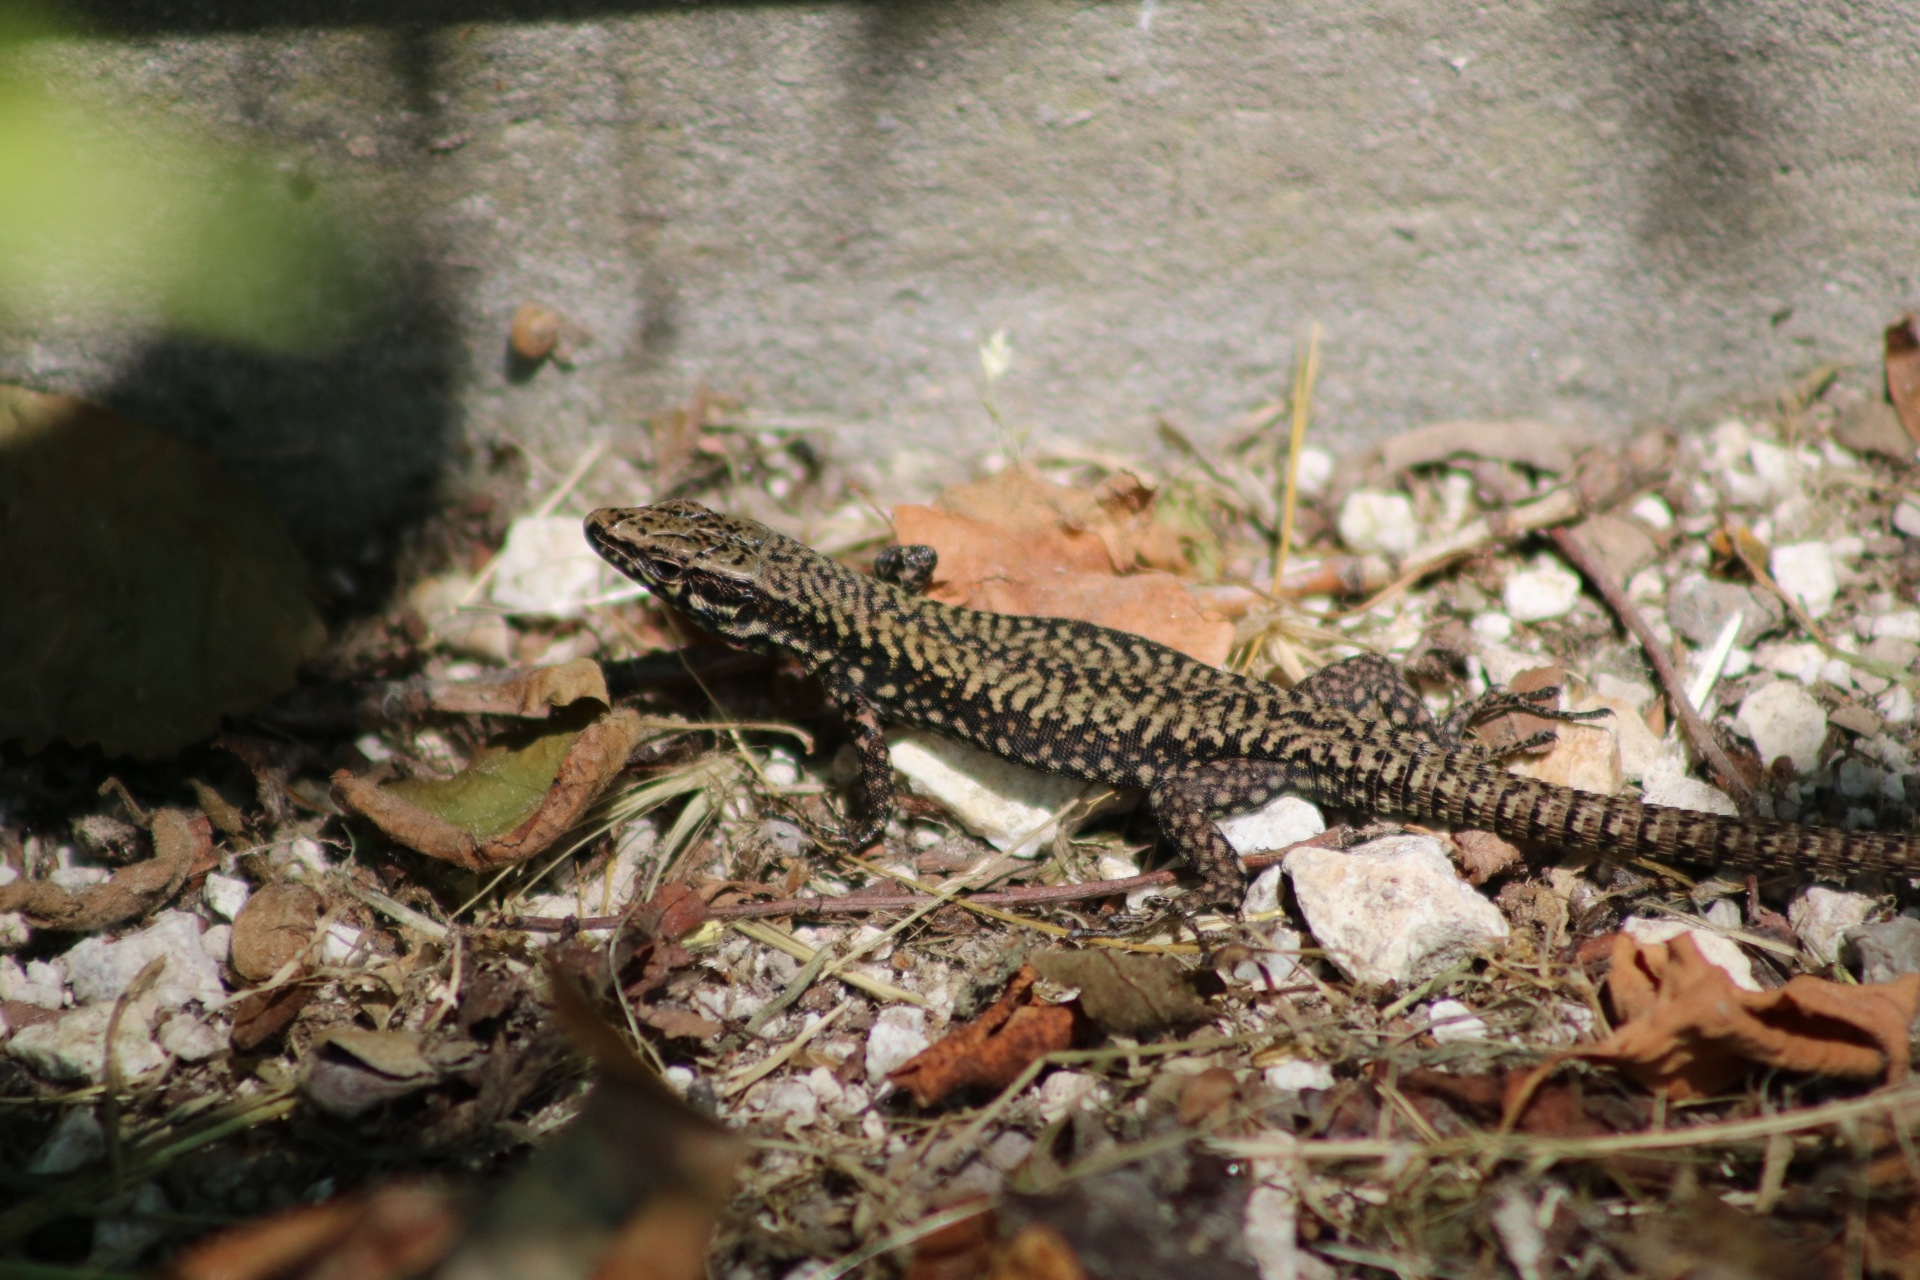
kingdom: Animalia
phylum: Chordata
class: Squamata
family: Lacertidae
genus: Podarcis
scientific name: Podarcis muralis
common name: Common wall lizard
